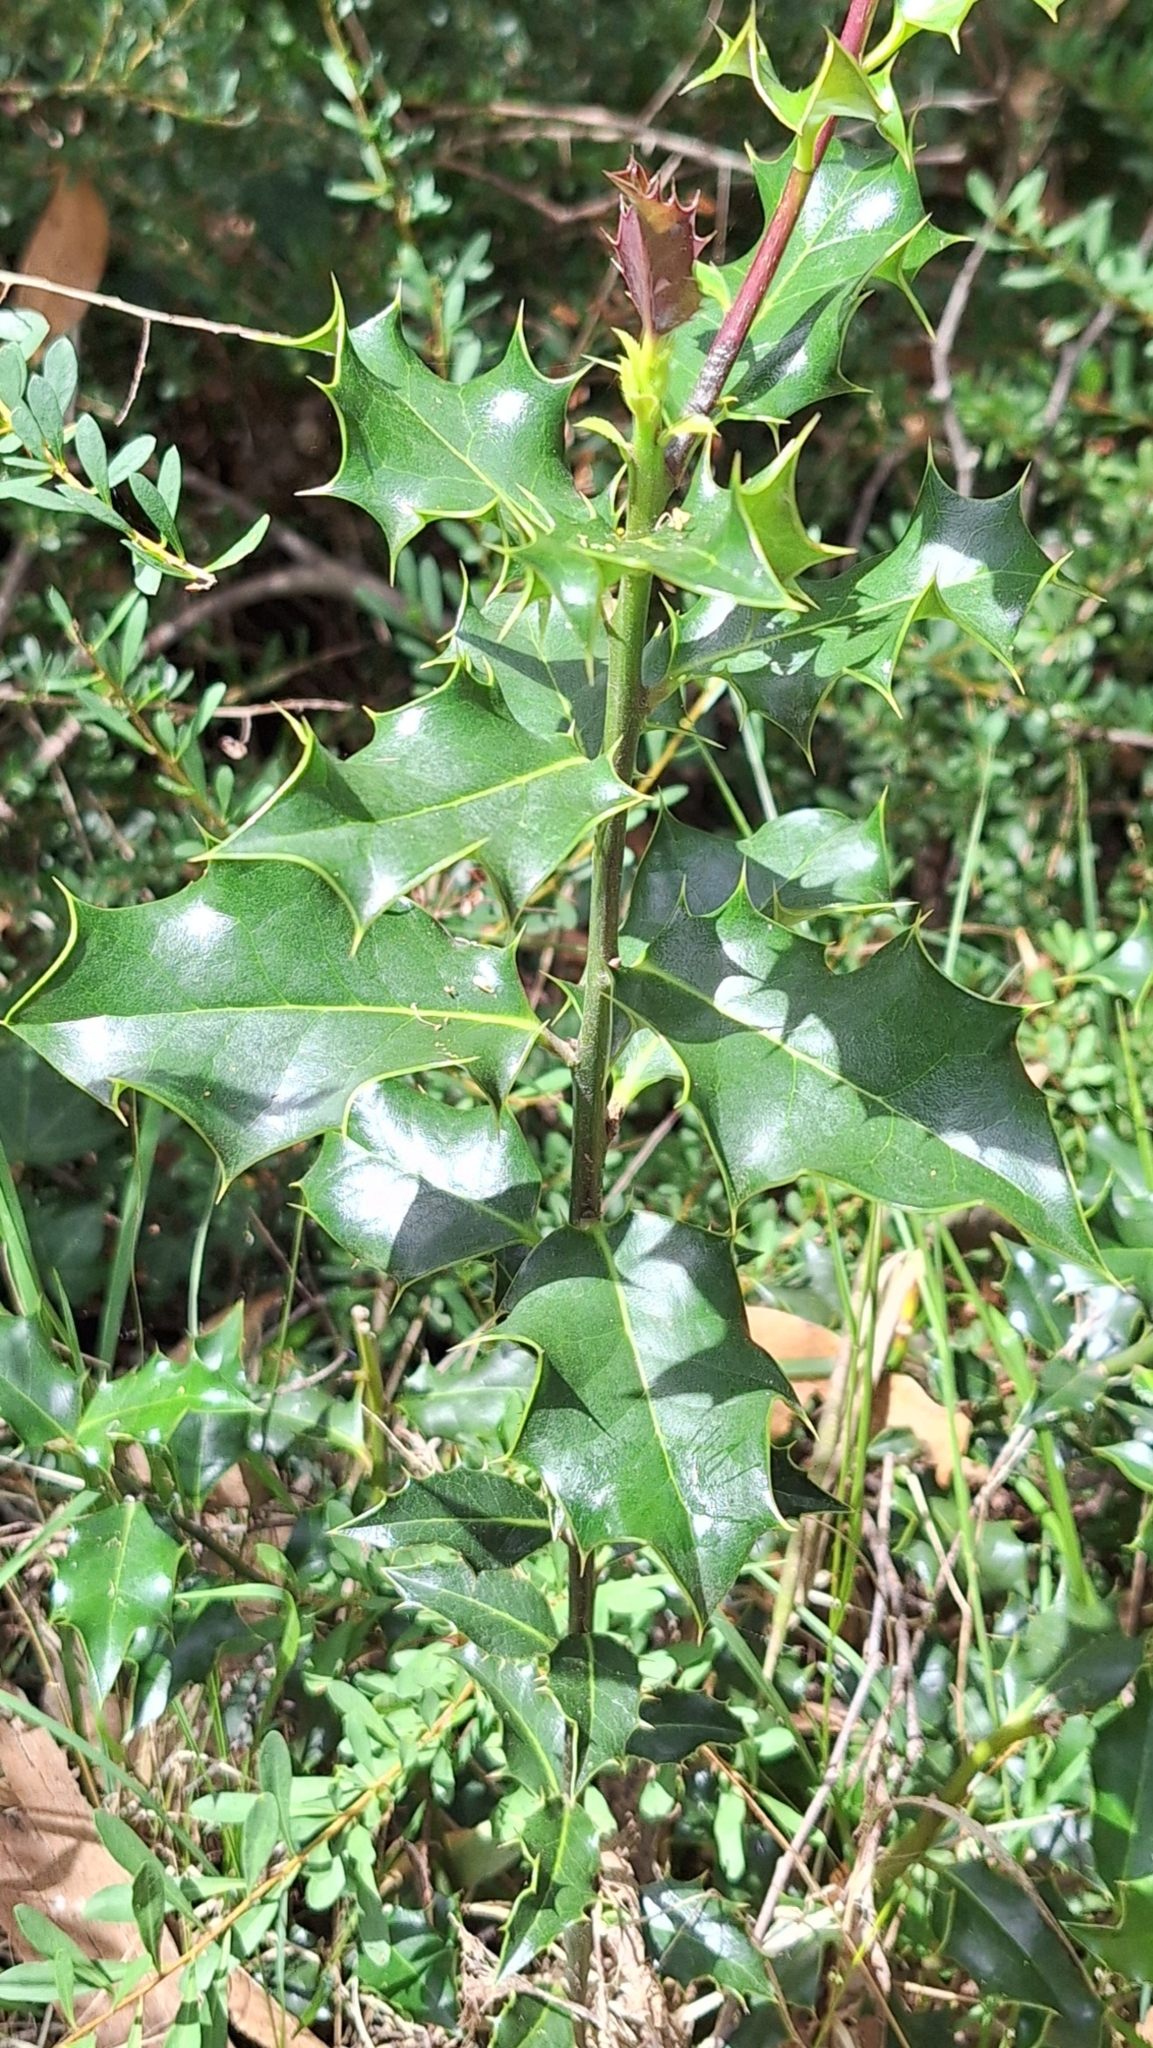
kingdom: Plantae
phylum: Tracheophyta
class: Magnoliopsida
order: Aquifoliales
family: Aquifoliaceae
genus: Ilex
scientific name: Ilex aquifolium
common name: English holly
